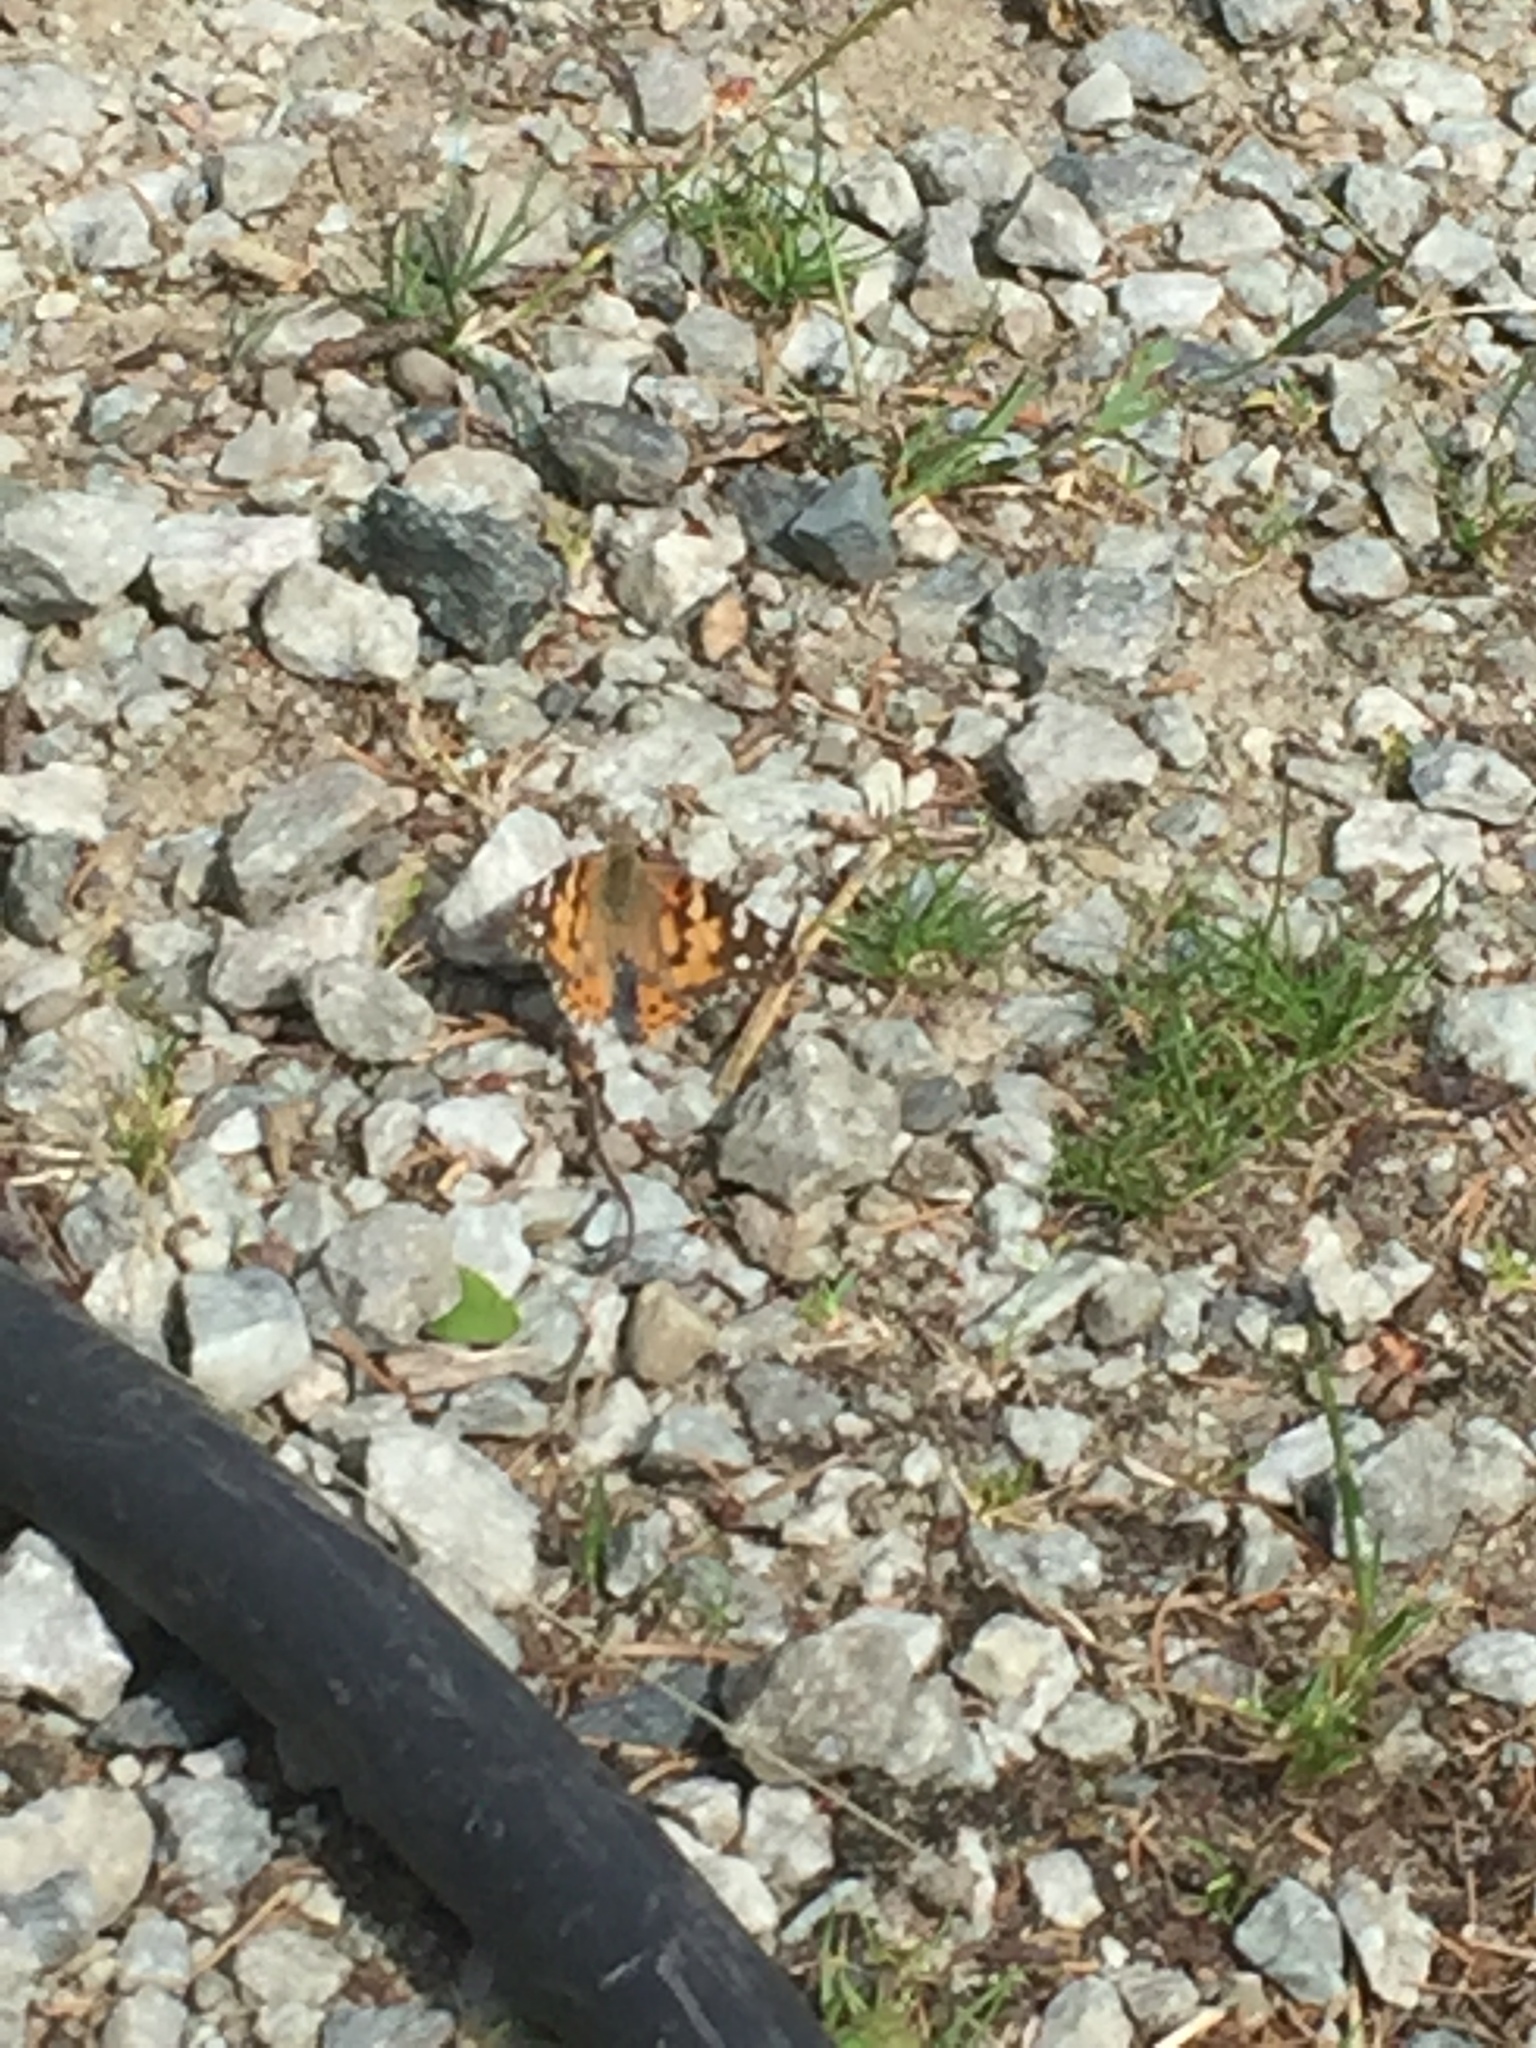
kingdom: Animalia
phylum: Arthropoda
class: Insecta
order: Lepidoptera
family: Nymphalidae
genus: Vanessa
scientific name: Vanessa cardui
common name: Painted lady
